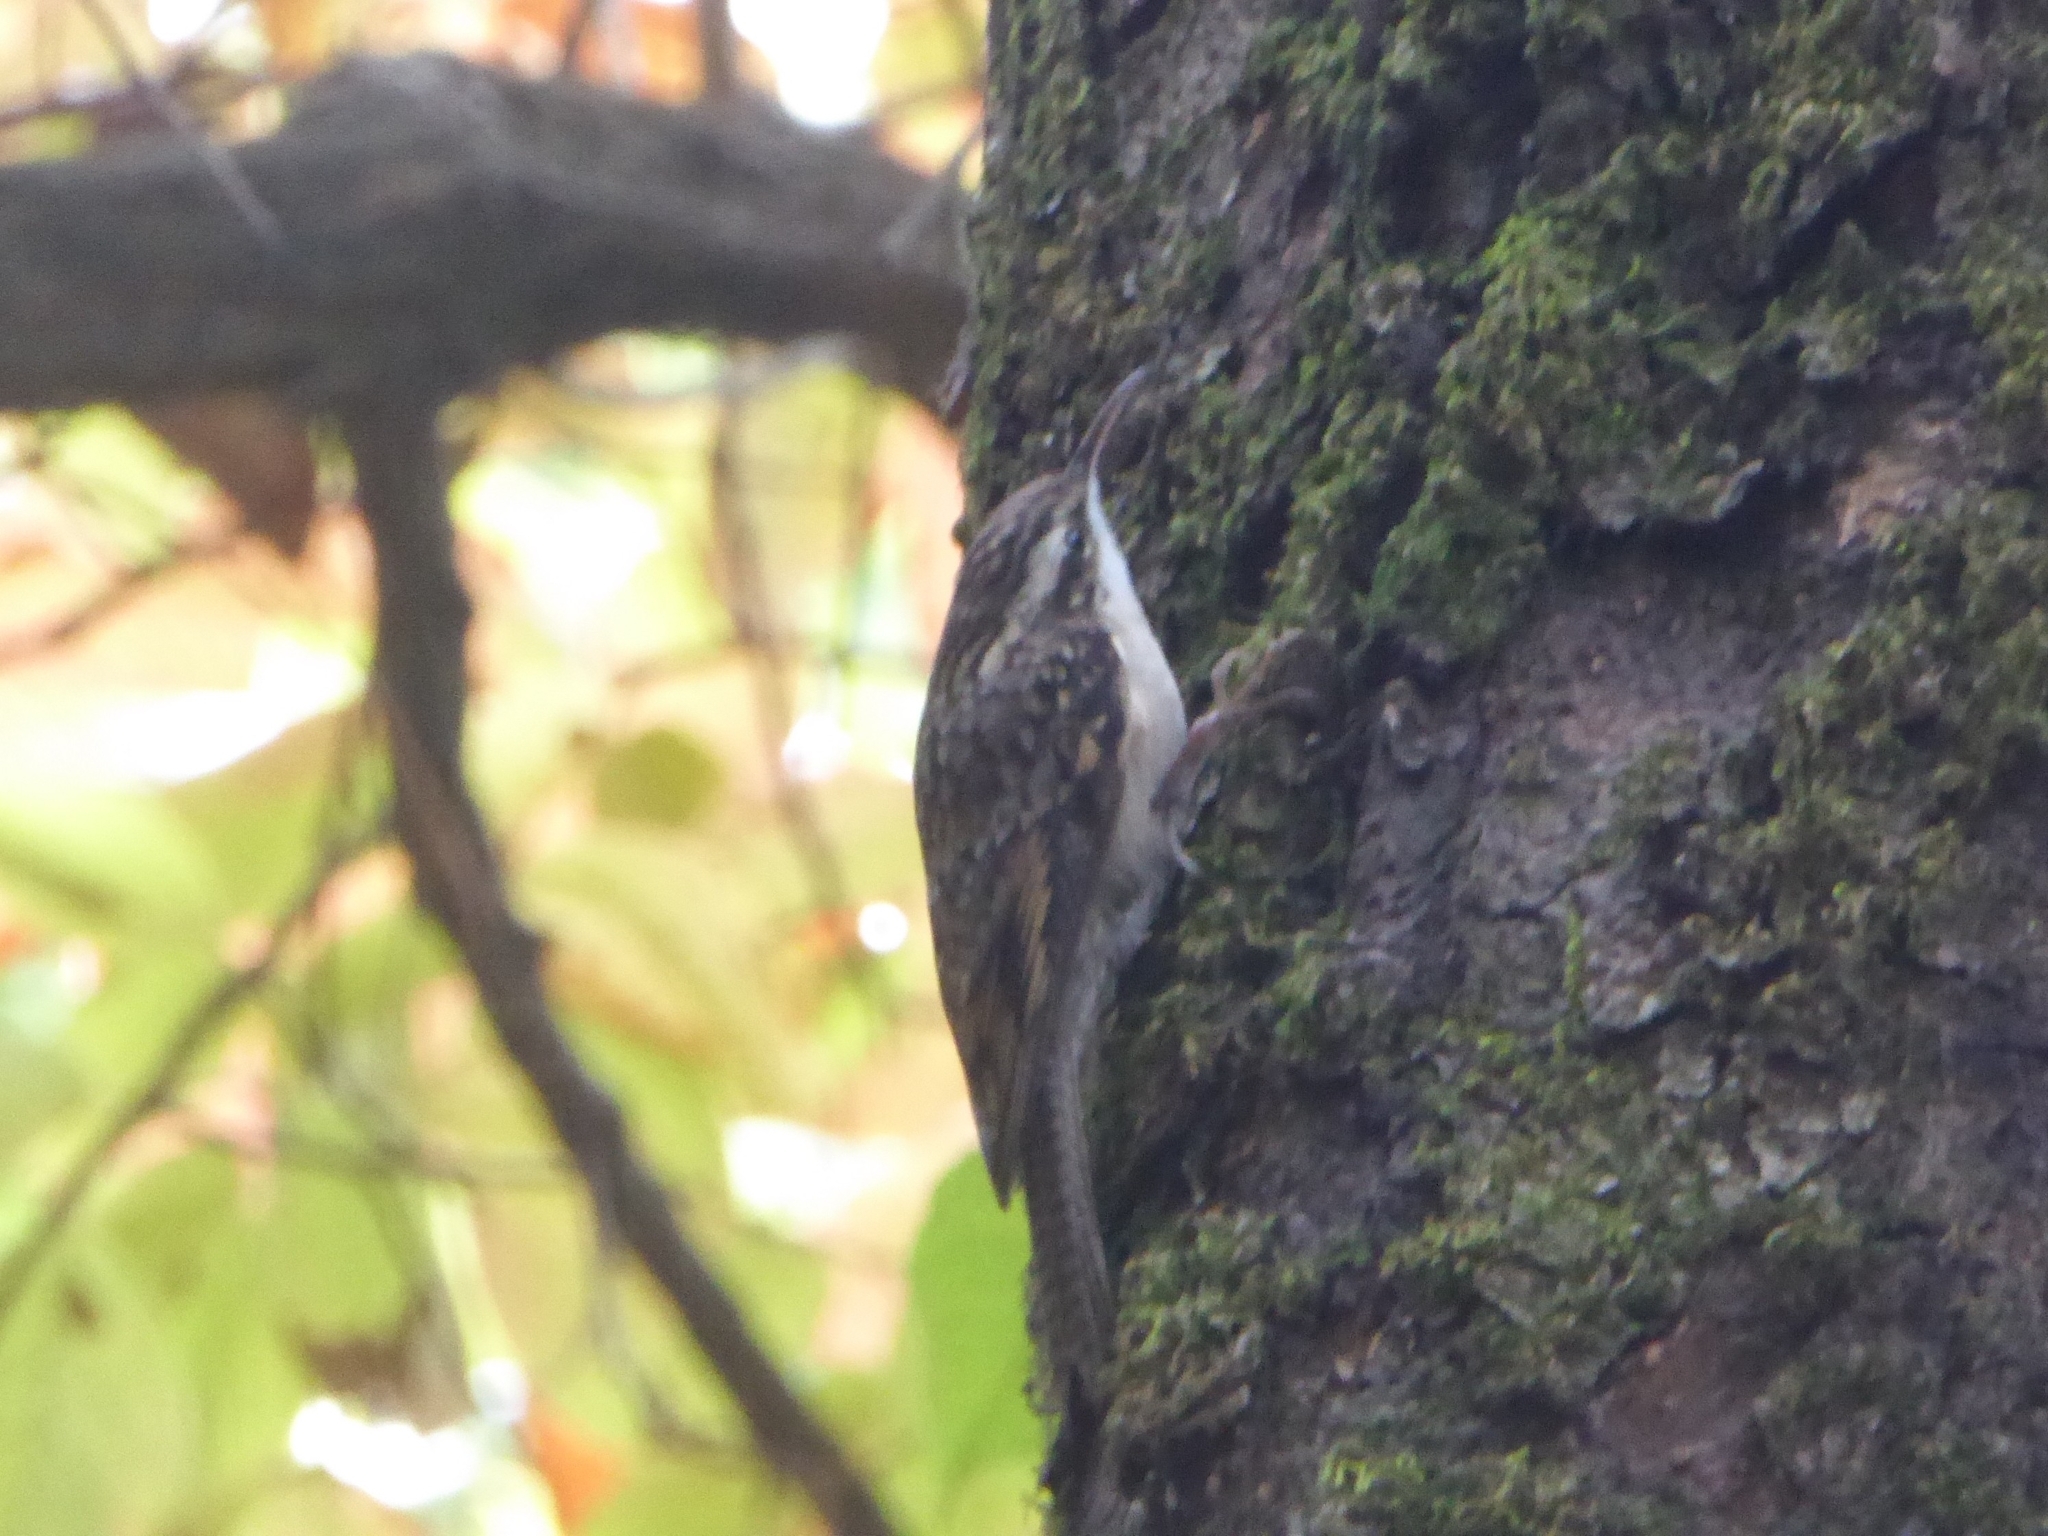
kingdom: Animalia
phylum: Chordata
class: Aves
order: Passeriformes
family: Certhiidae
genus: Certhia
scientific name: Certhia himalayana
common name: Bar-tailed treecreeper
